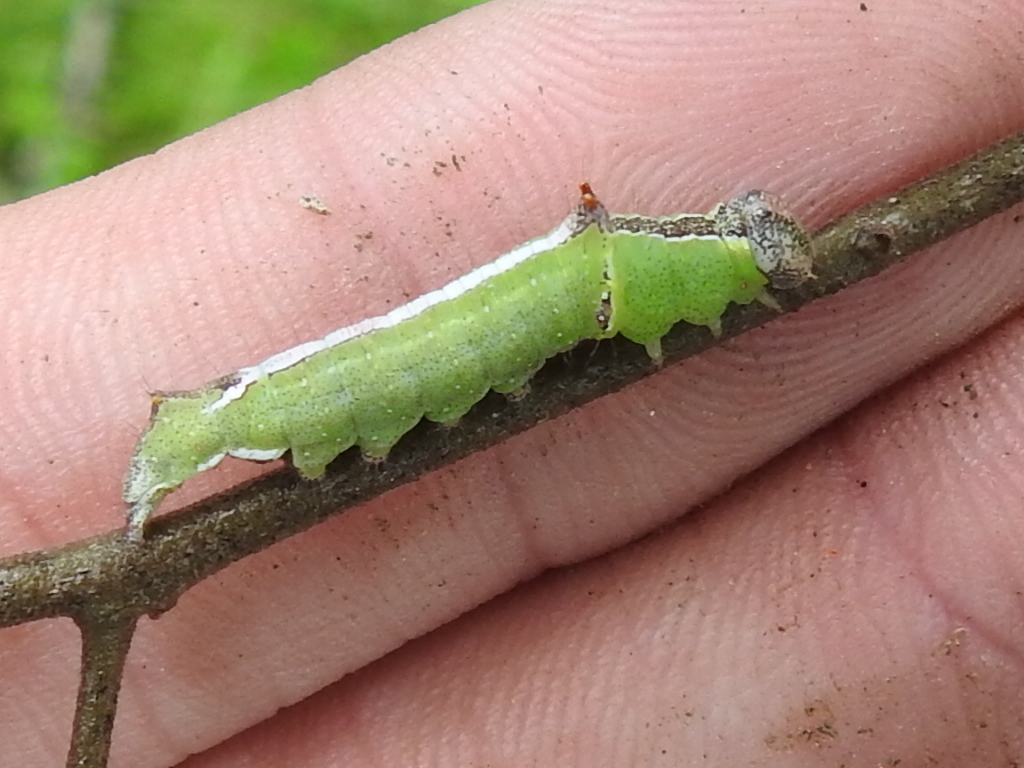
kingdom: Animalia
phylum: Arthropoda
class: Insecta
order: Lepidoptera
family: Notodontidae
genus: Schizura
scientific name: Schizura
